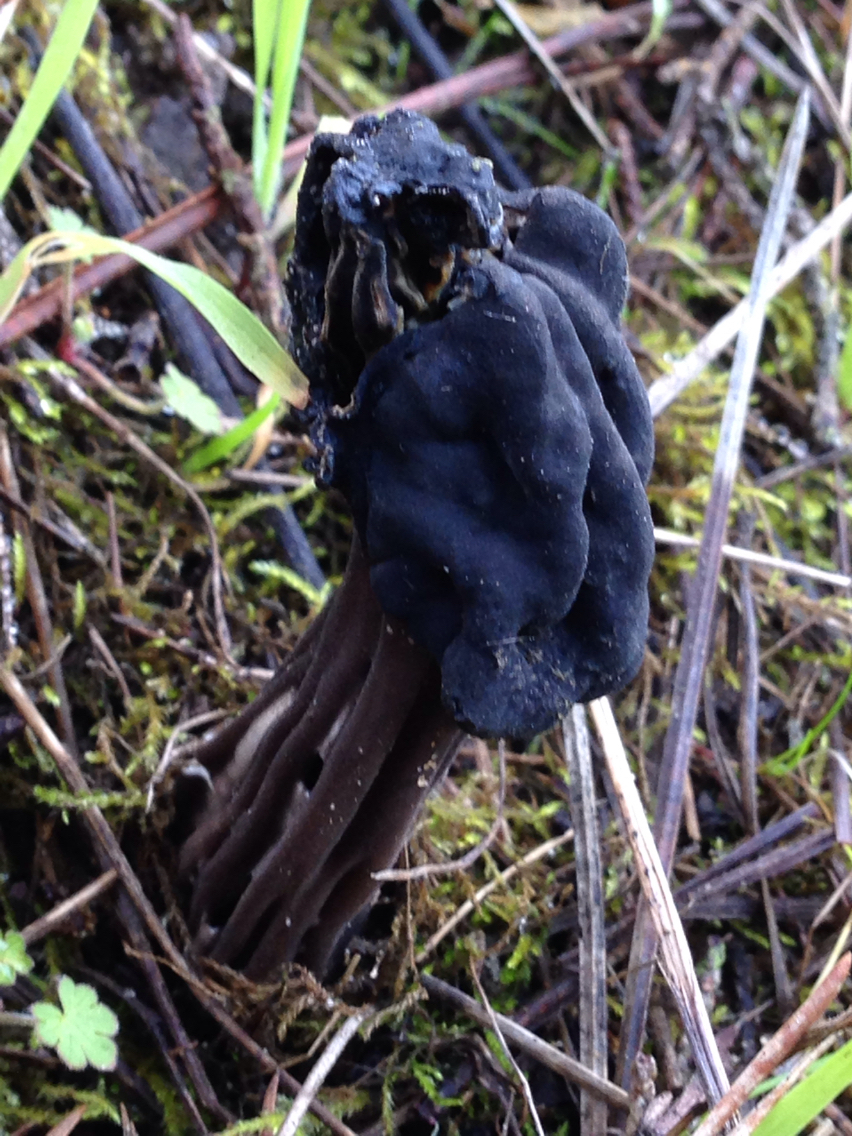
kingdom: Fungi
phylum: Ascomycota
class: Pezizomycetes
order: Pezizales
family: Helvellaceae
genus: Helvella
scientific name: Helvella vespertina
